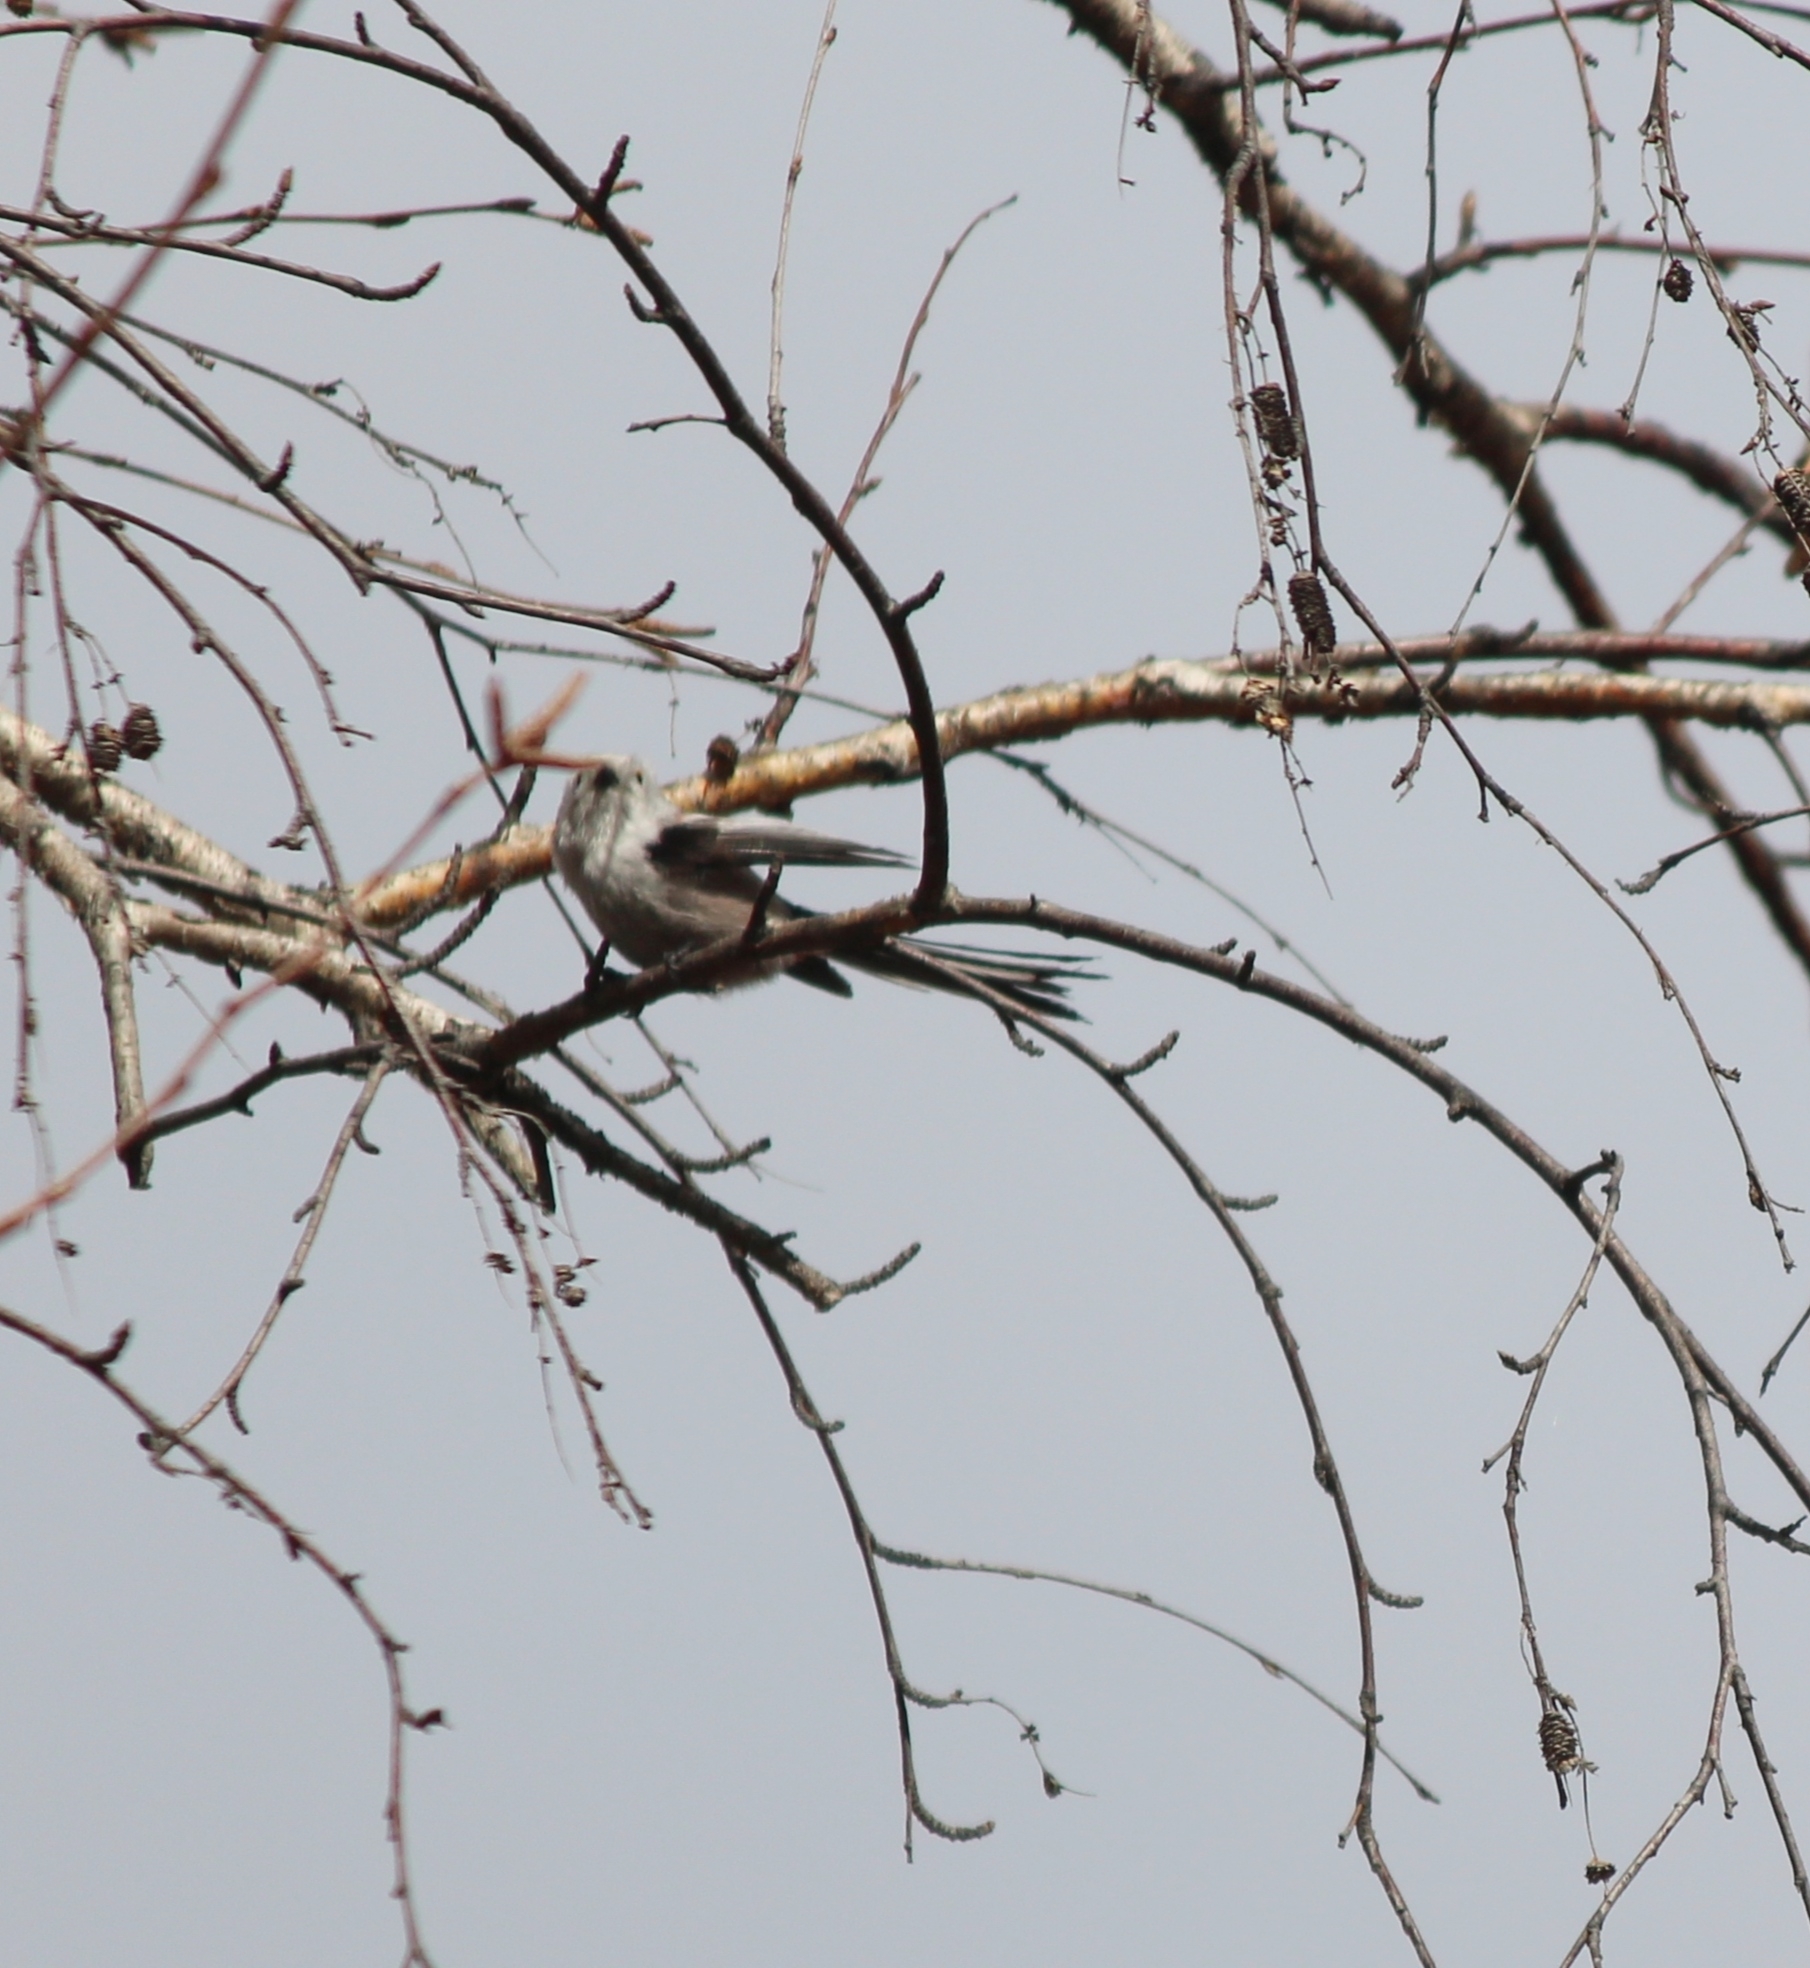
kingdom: Animalia
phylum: Chordata
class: Aves
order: Passeriformes
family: Aegithalidae
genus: Aegithalos
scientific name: Aegithalos caudatus
